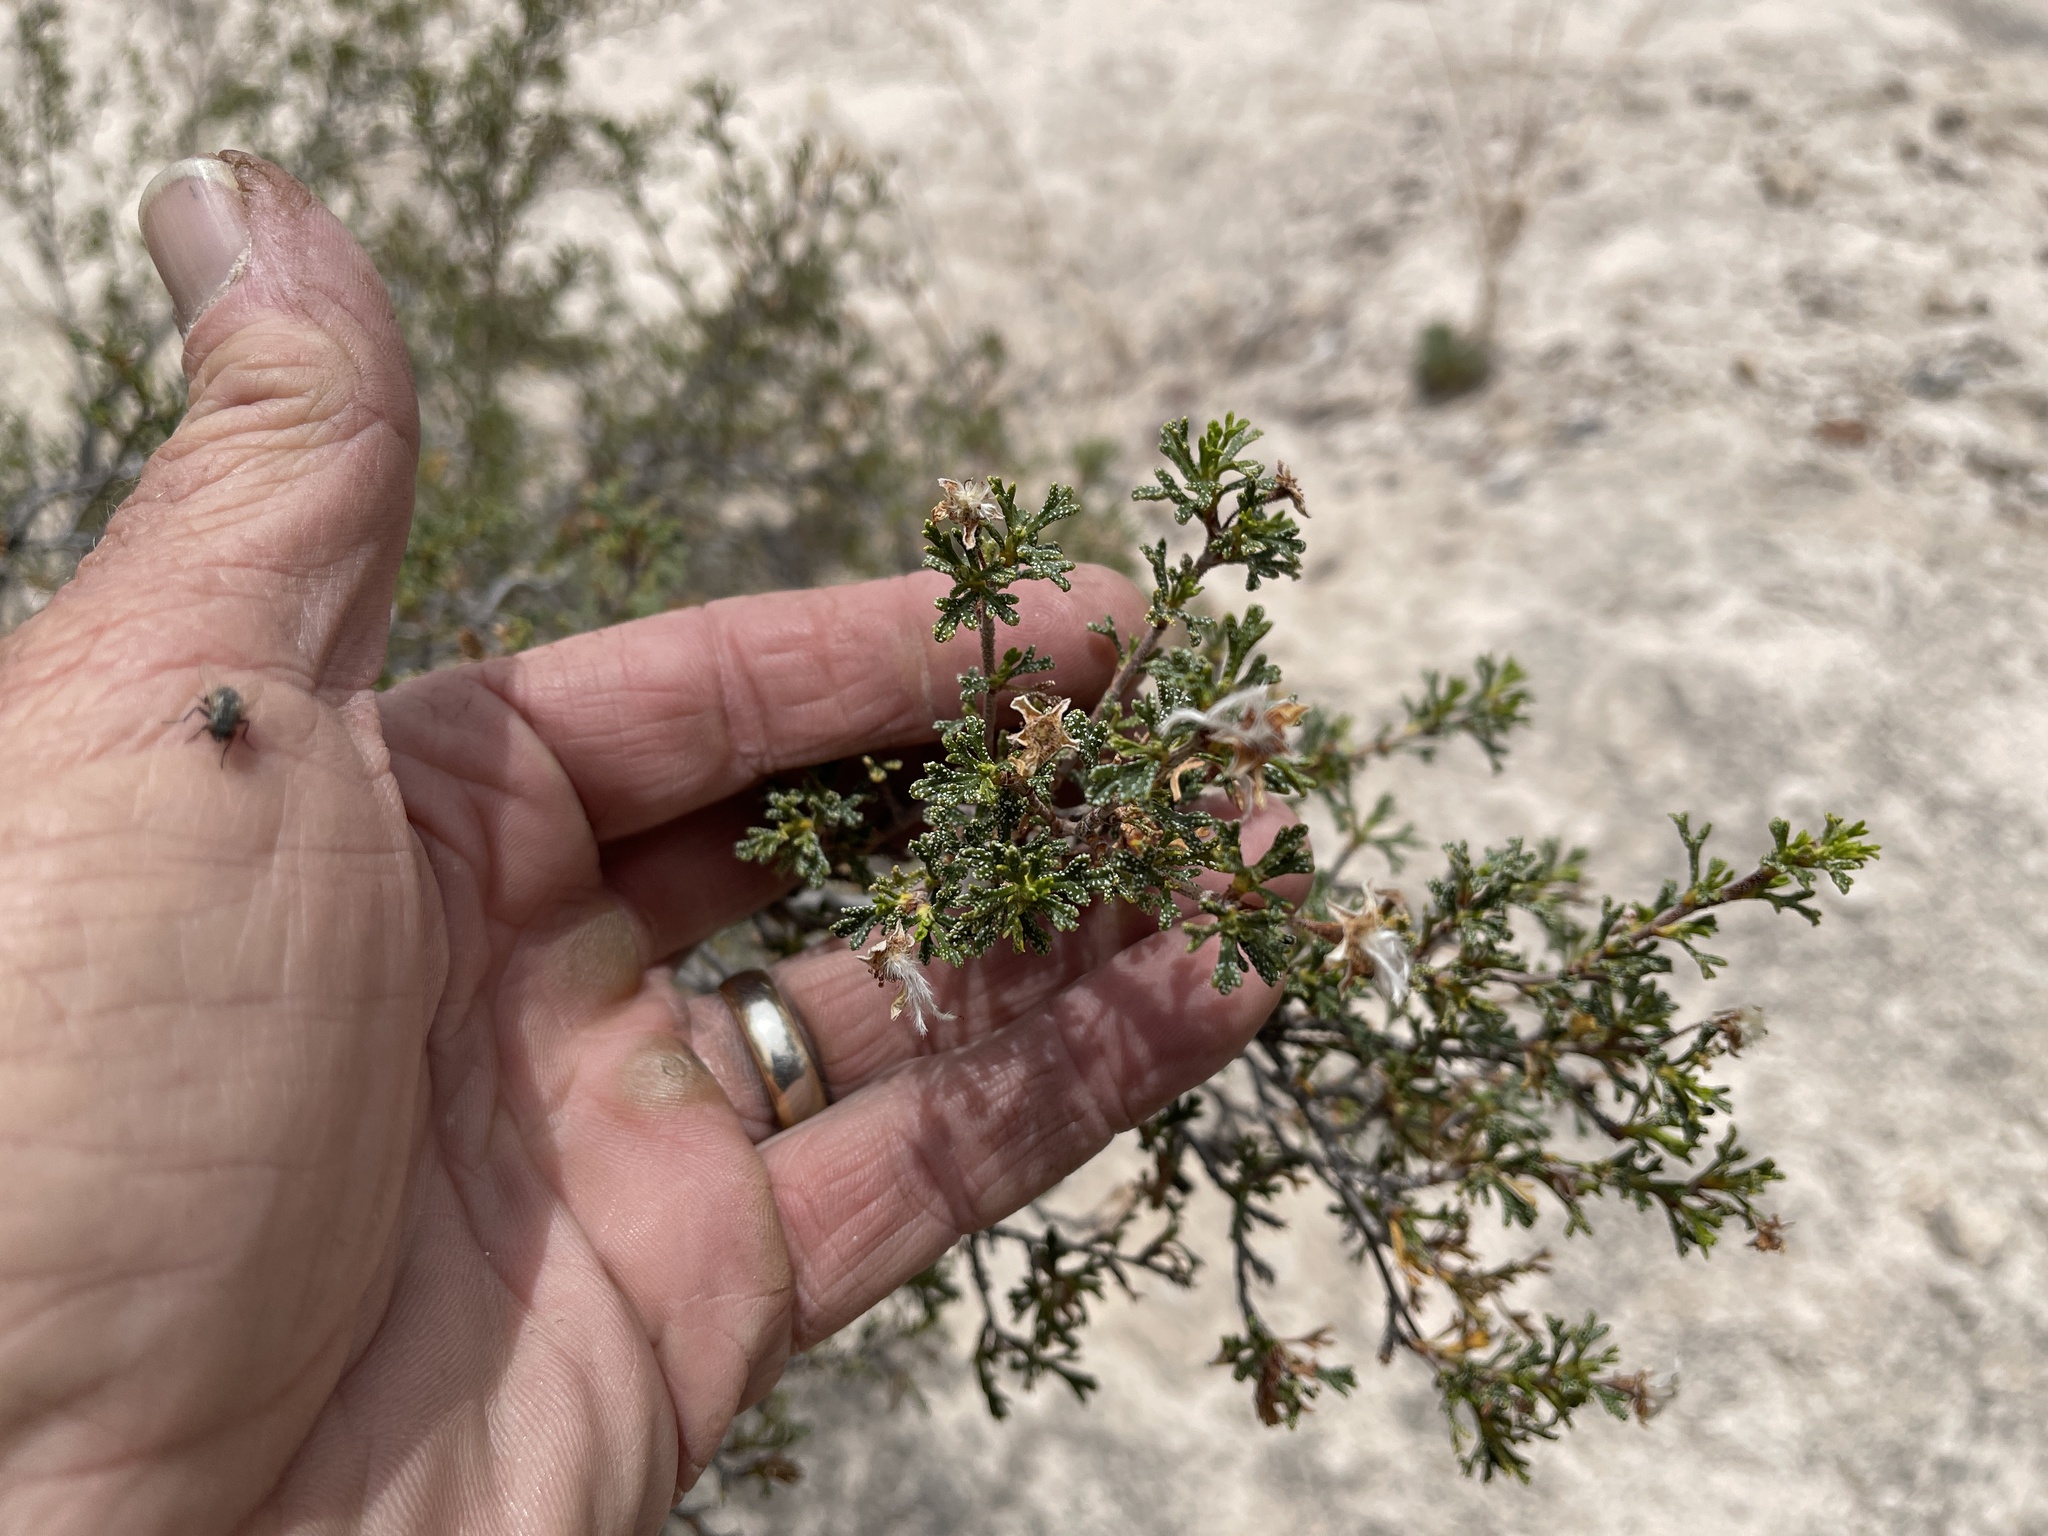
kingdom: Plantae
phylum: Tracheophyta
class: Magnoliopsida
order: Rosales
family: Rosaceae
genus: Purshia
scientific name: Purshia stansburiana
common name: Stansbury's cliffrose
